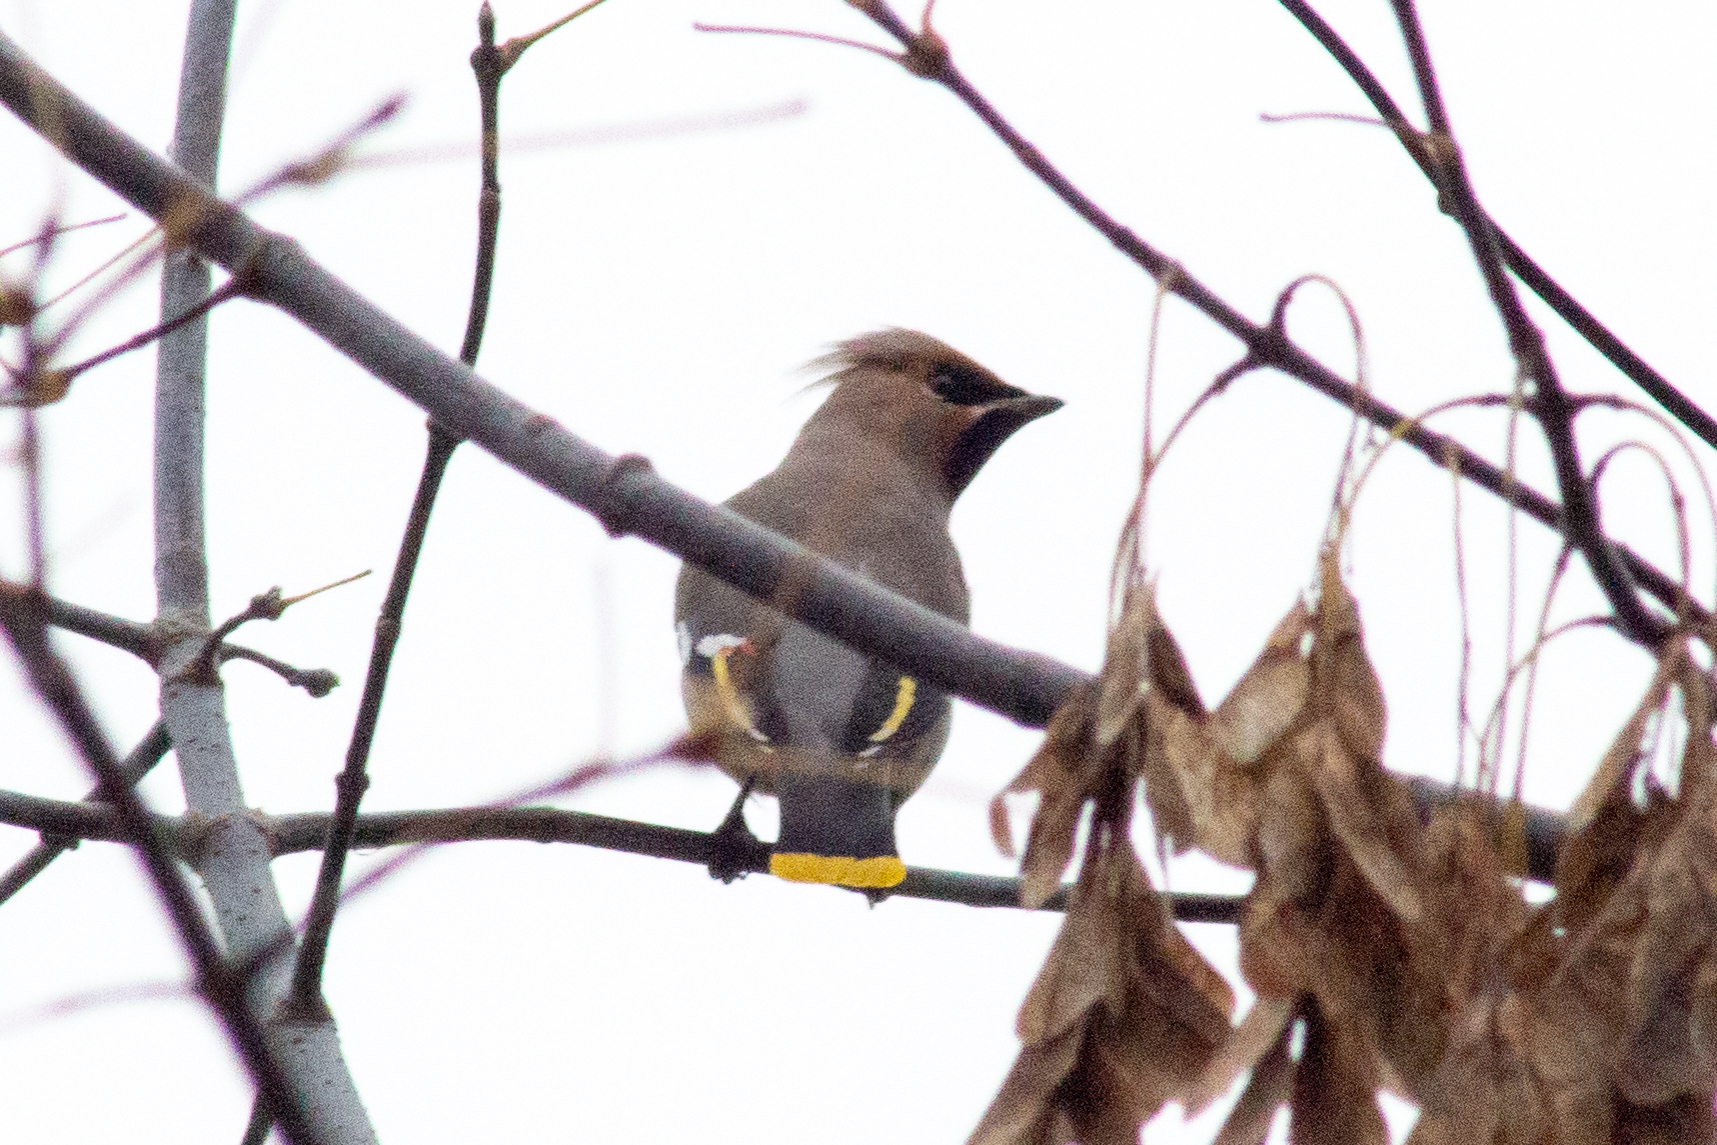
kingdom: Animalia
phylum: Chordata
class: Aves
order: Passeriformes
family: Bombycillidae
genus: Bombycilla
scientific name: Bombycilla garrulus
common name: Bohemian waxwing
